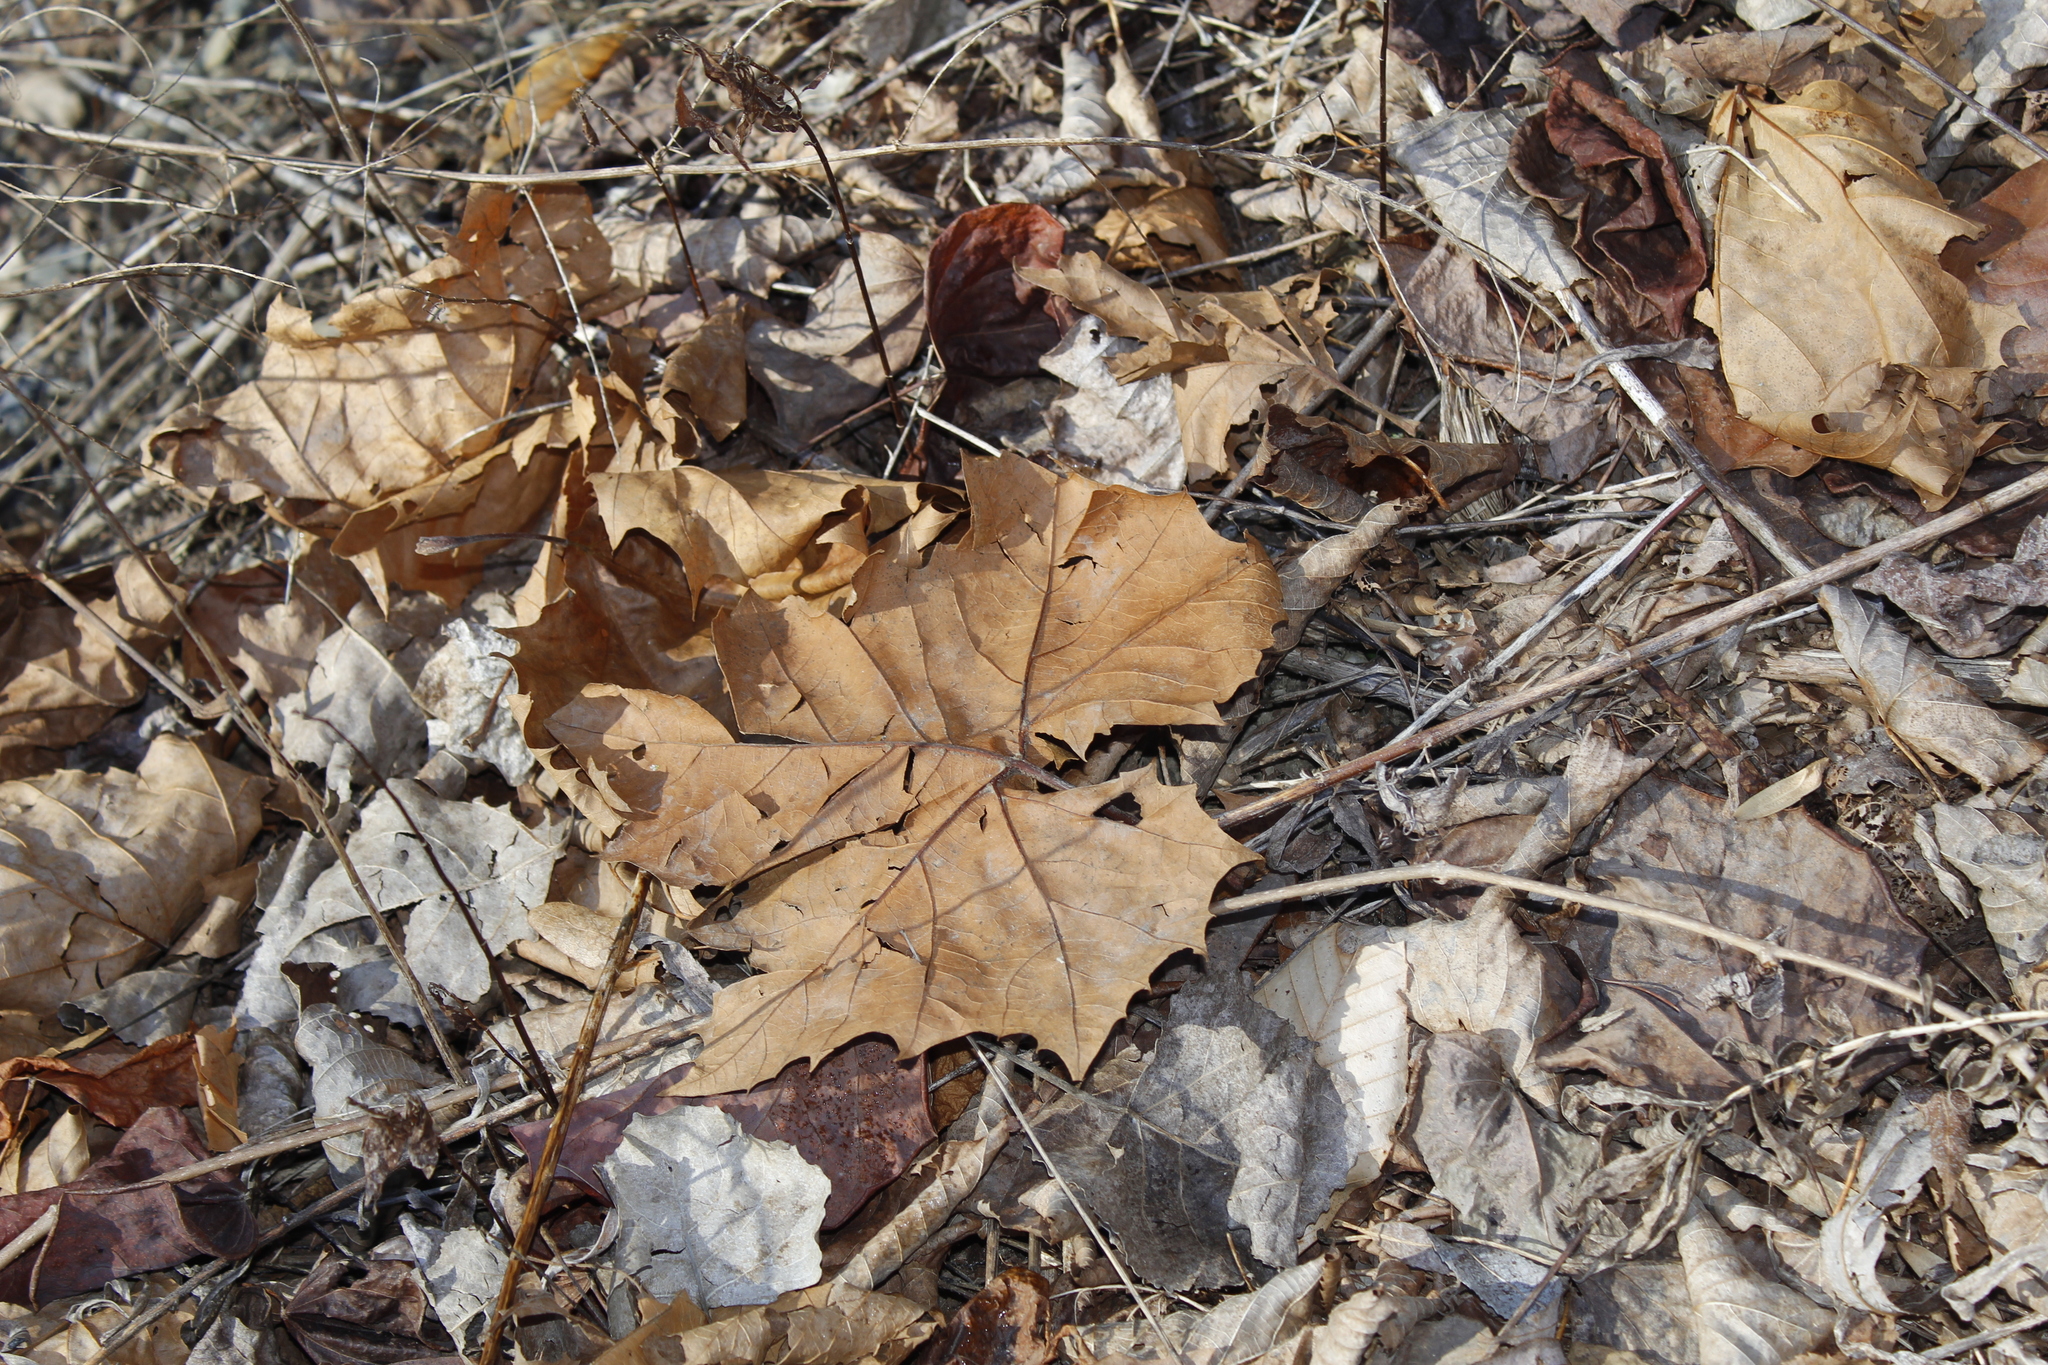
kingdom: Plantae
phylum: Tracheophyta
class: Magnoliopsida
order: Proteales
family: Platanaceae
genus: Platanus
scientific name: Platanus occidentalis
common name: American sycamore
